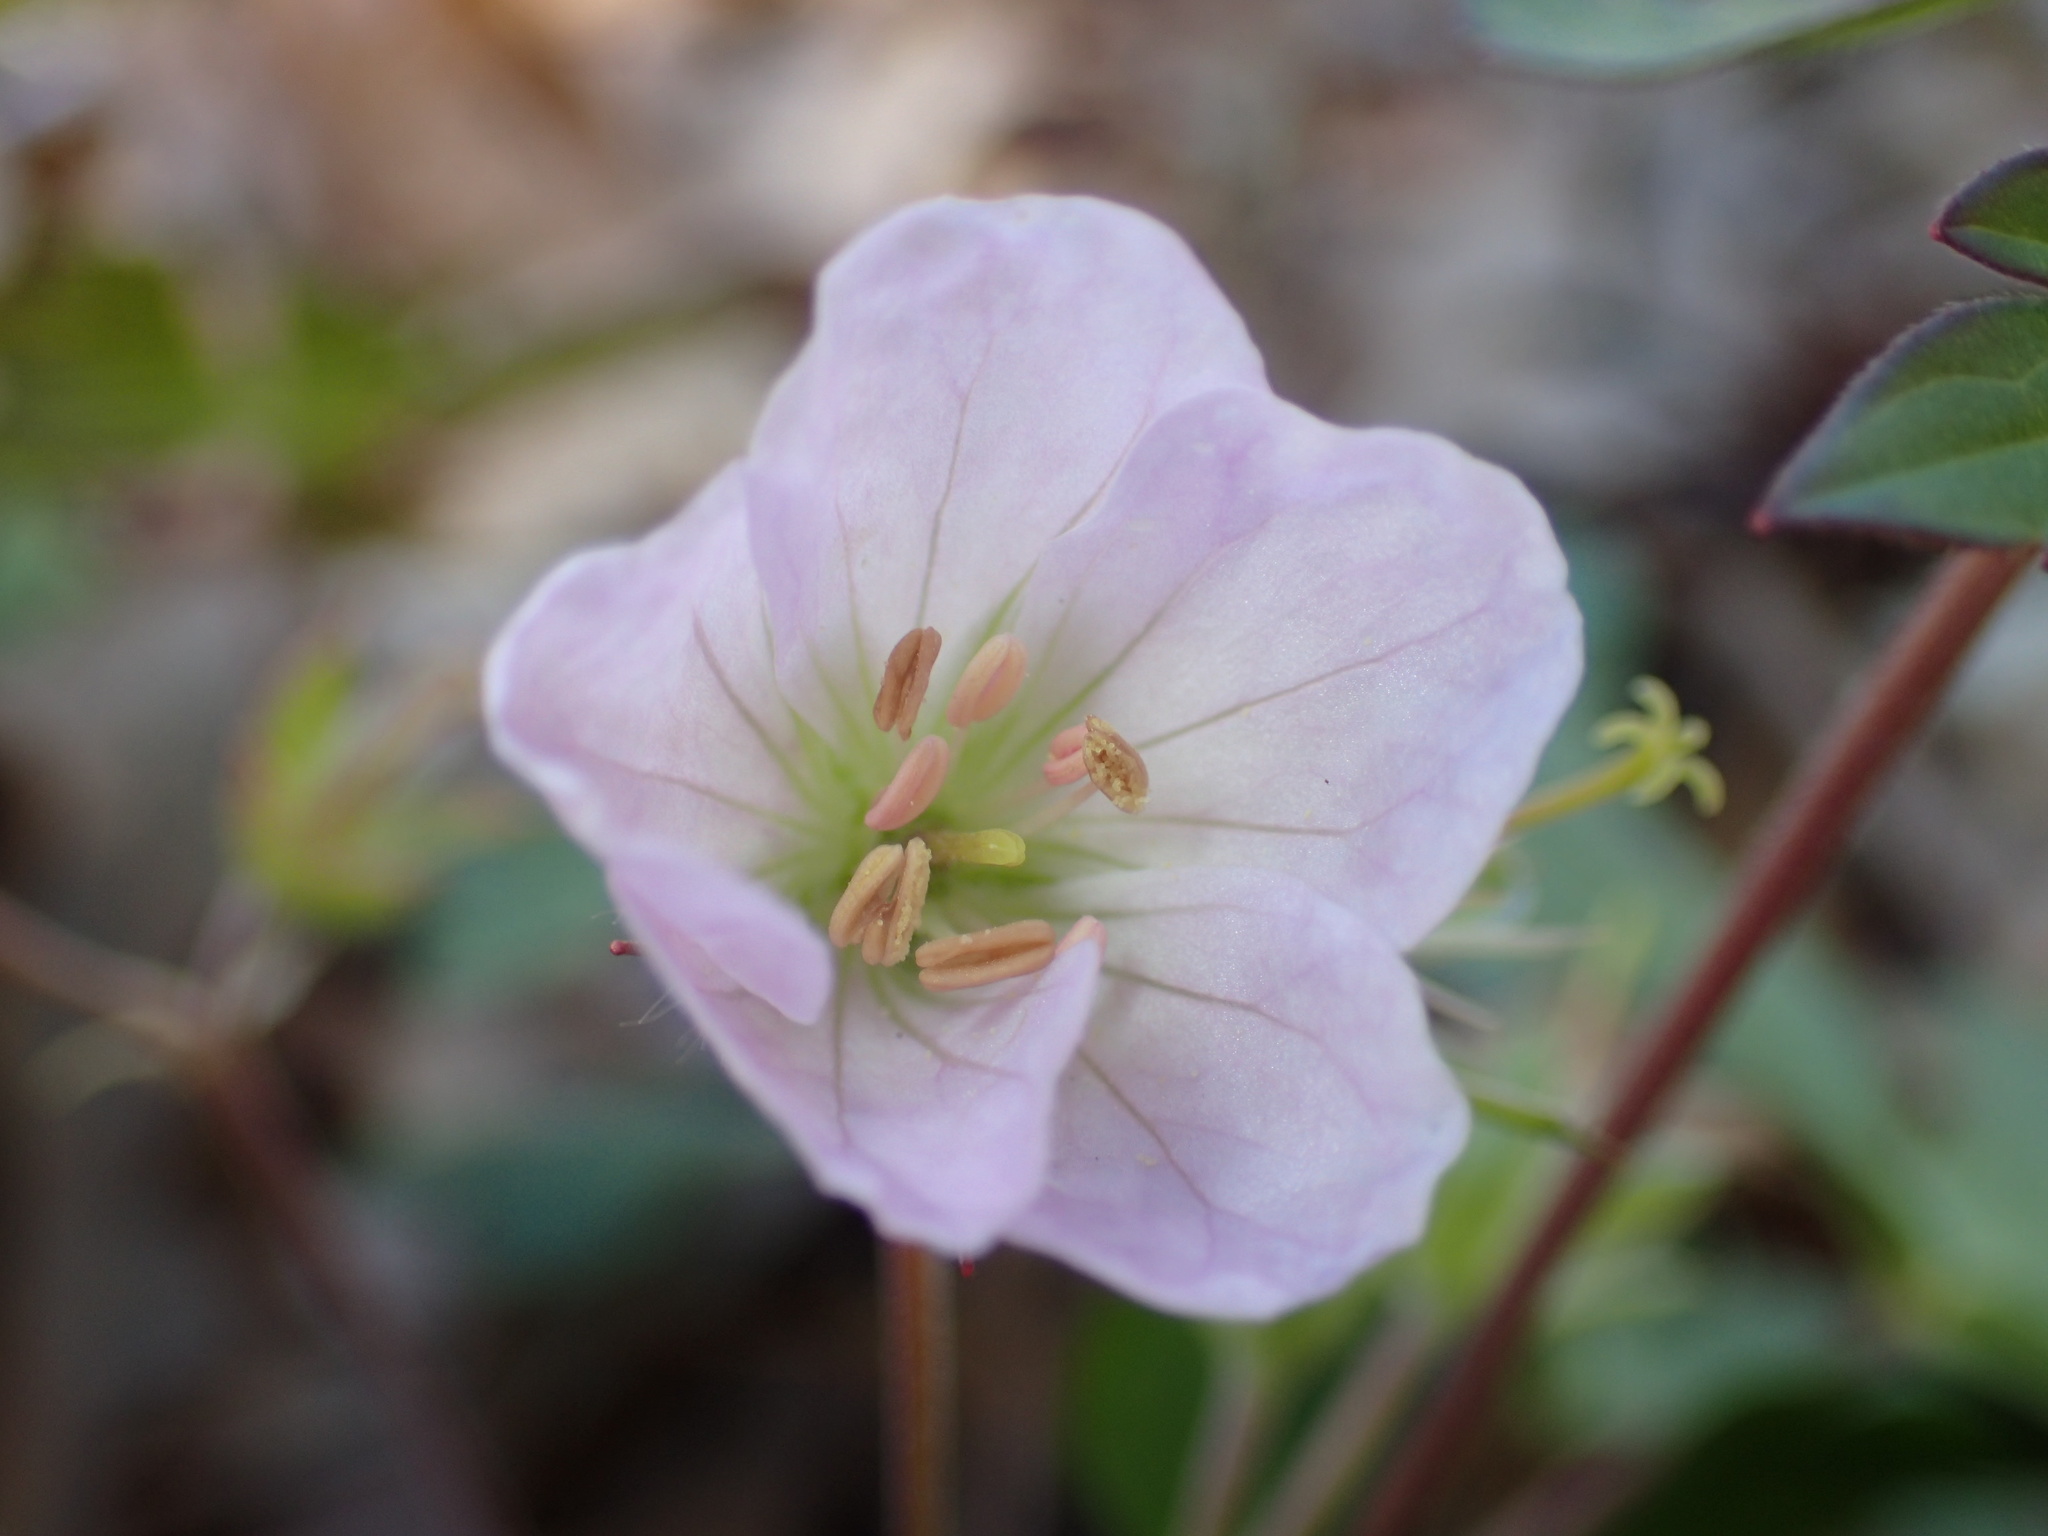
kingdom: Plantae
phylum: Tracheophyta
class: Magnoliopsida
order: Geraniales
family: Geraniaceae
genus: Geranium
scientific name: Geranium maculatum
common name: Spotted geranium
